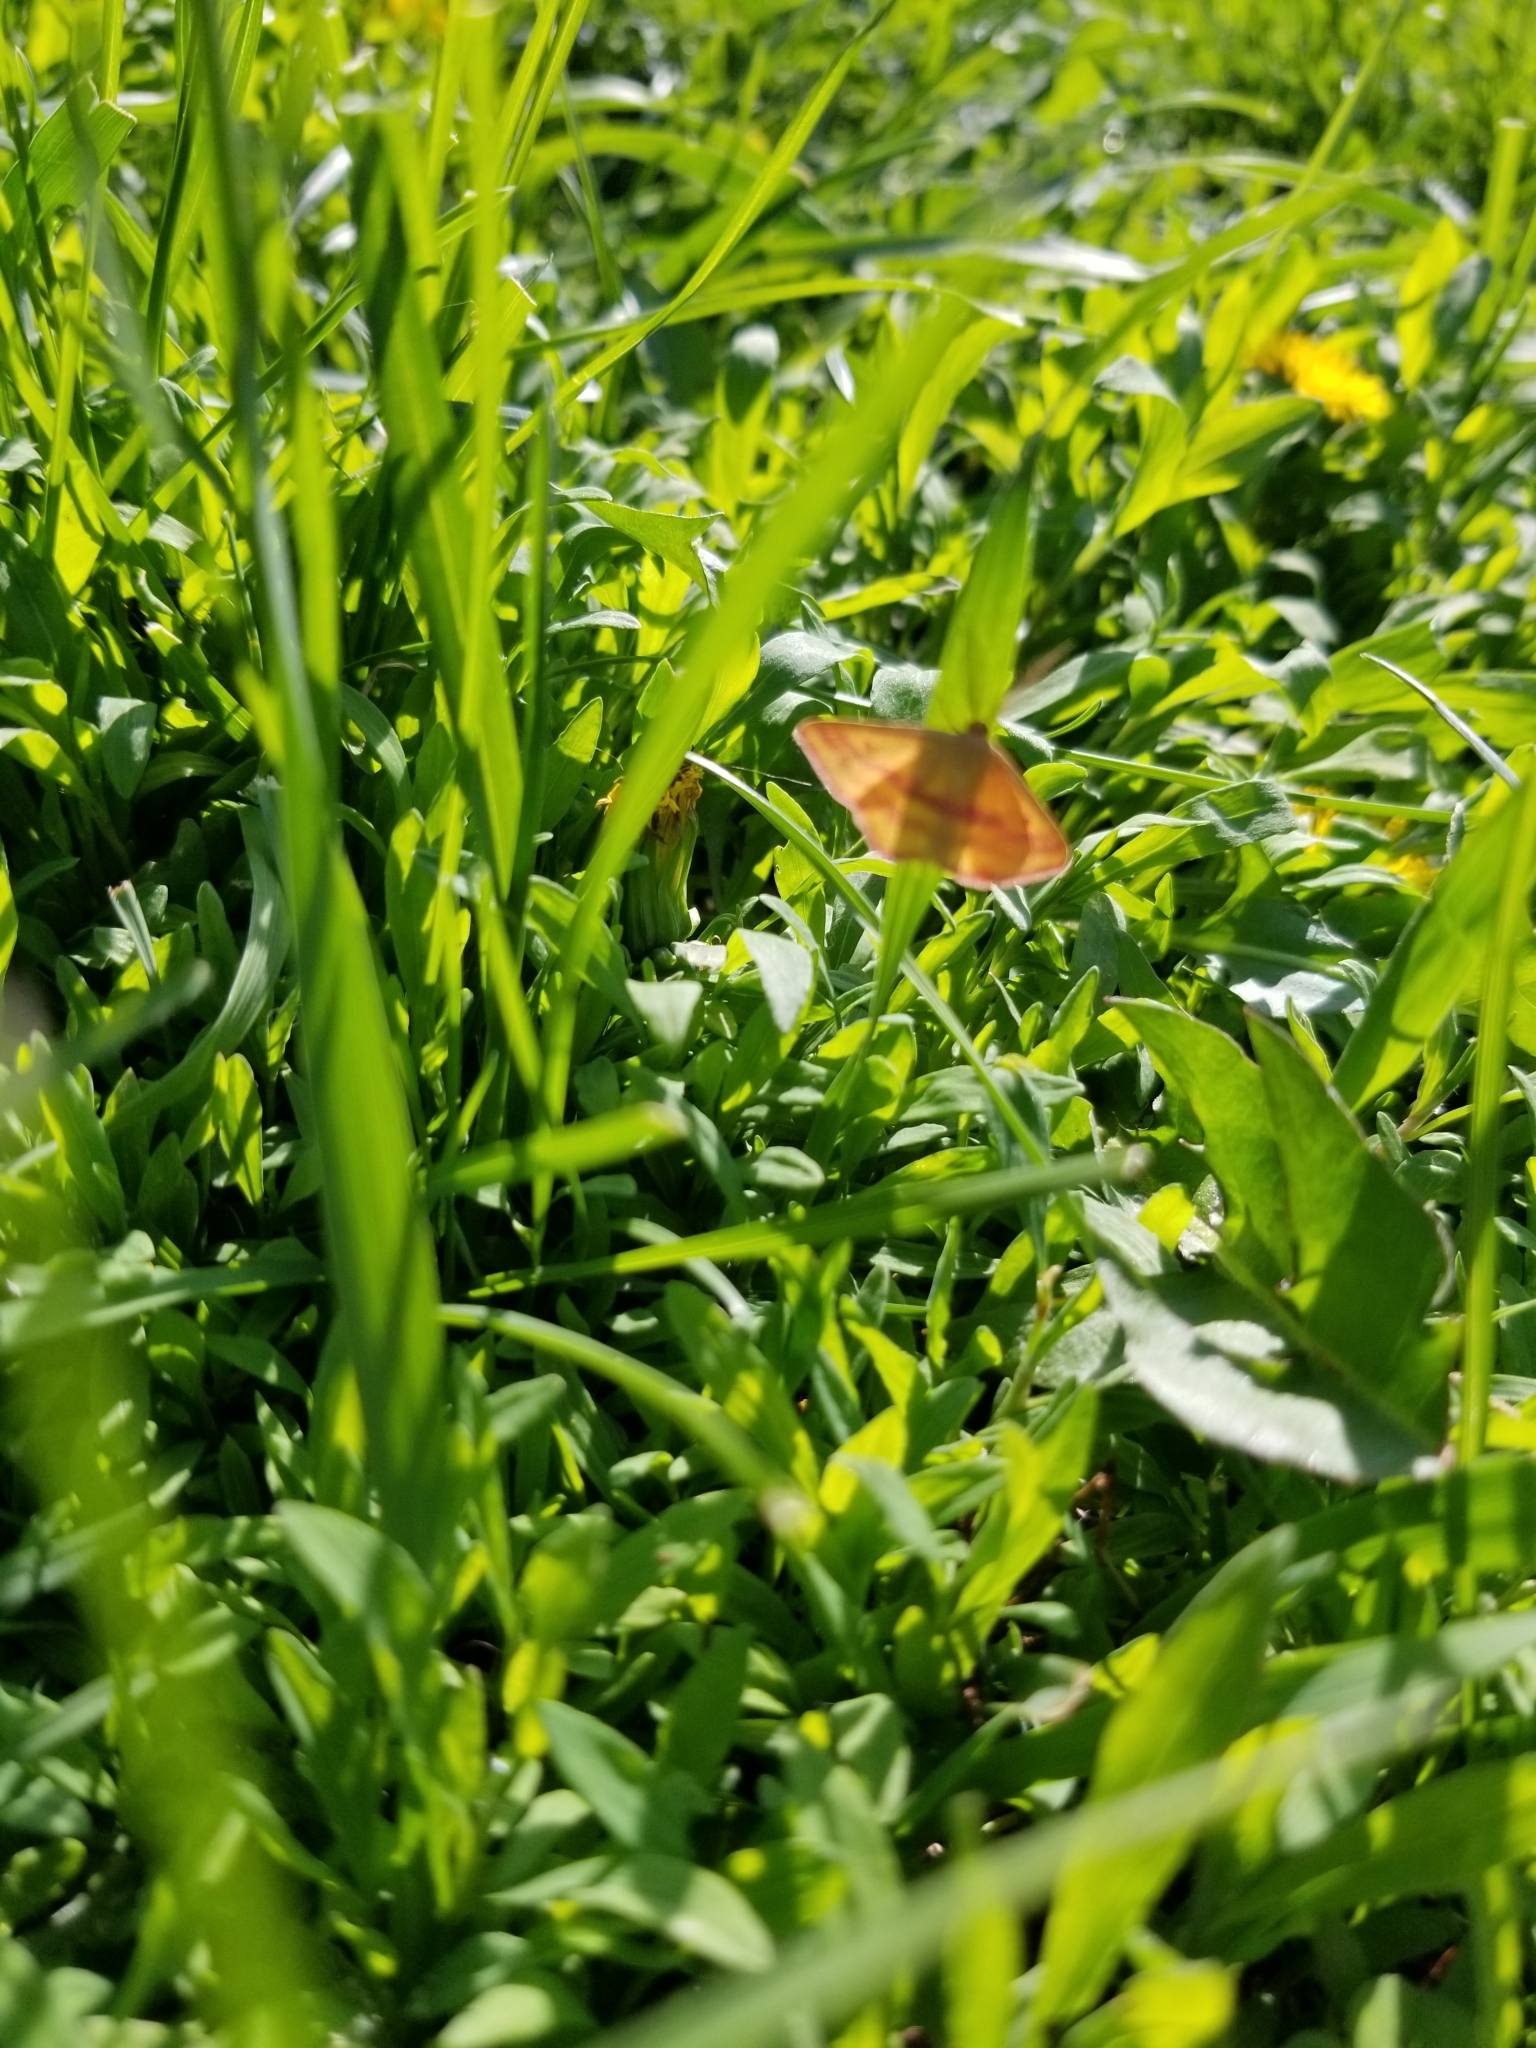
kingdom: Animalia
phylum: Arthropoda
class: Insecta
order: Lepidoptera
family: Geometridae
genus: Haematopis
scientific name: Haematopis grataria
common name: Chickweed geometer
